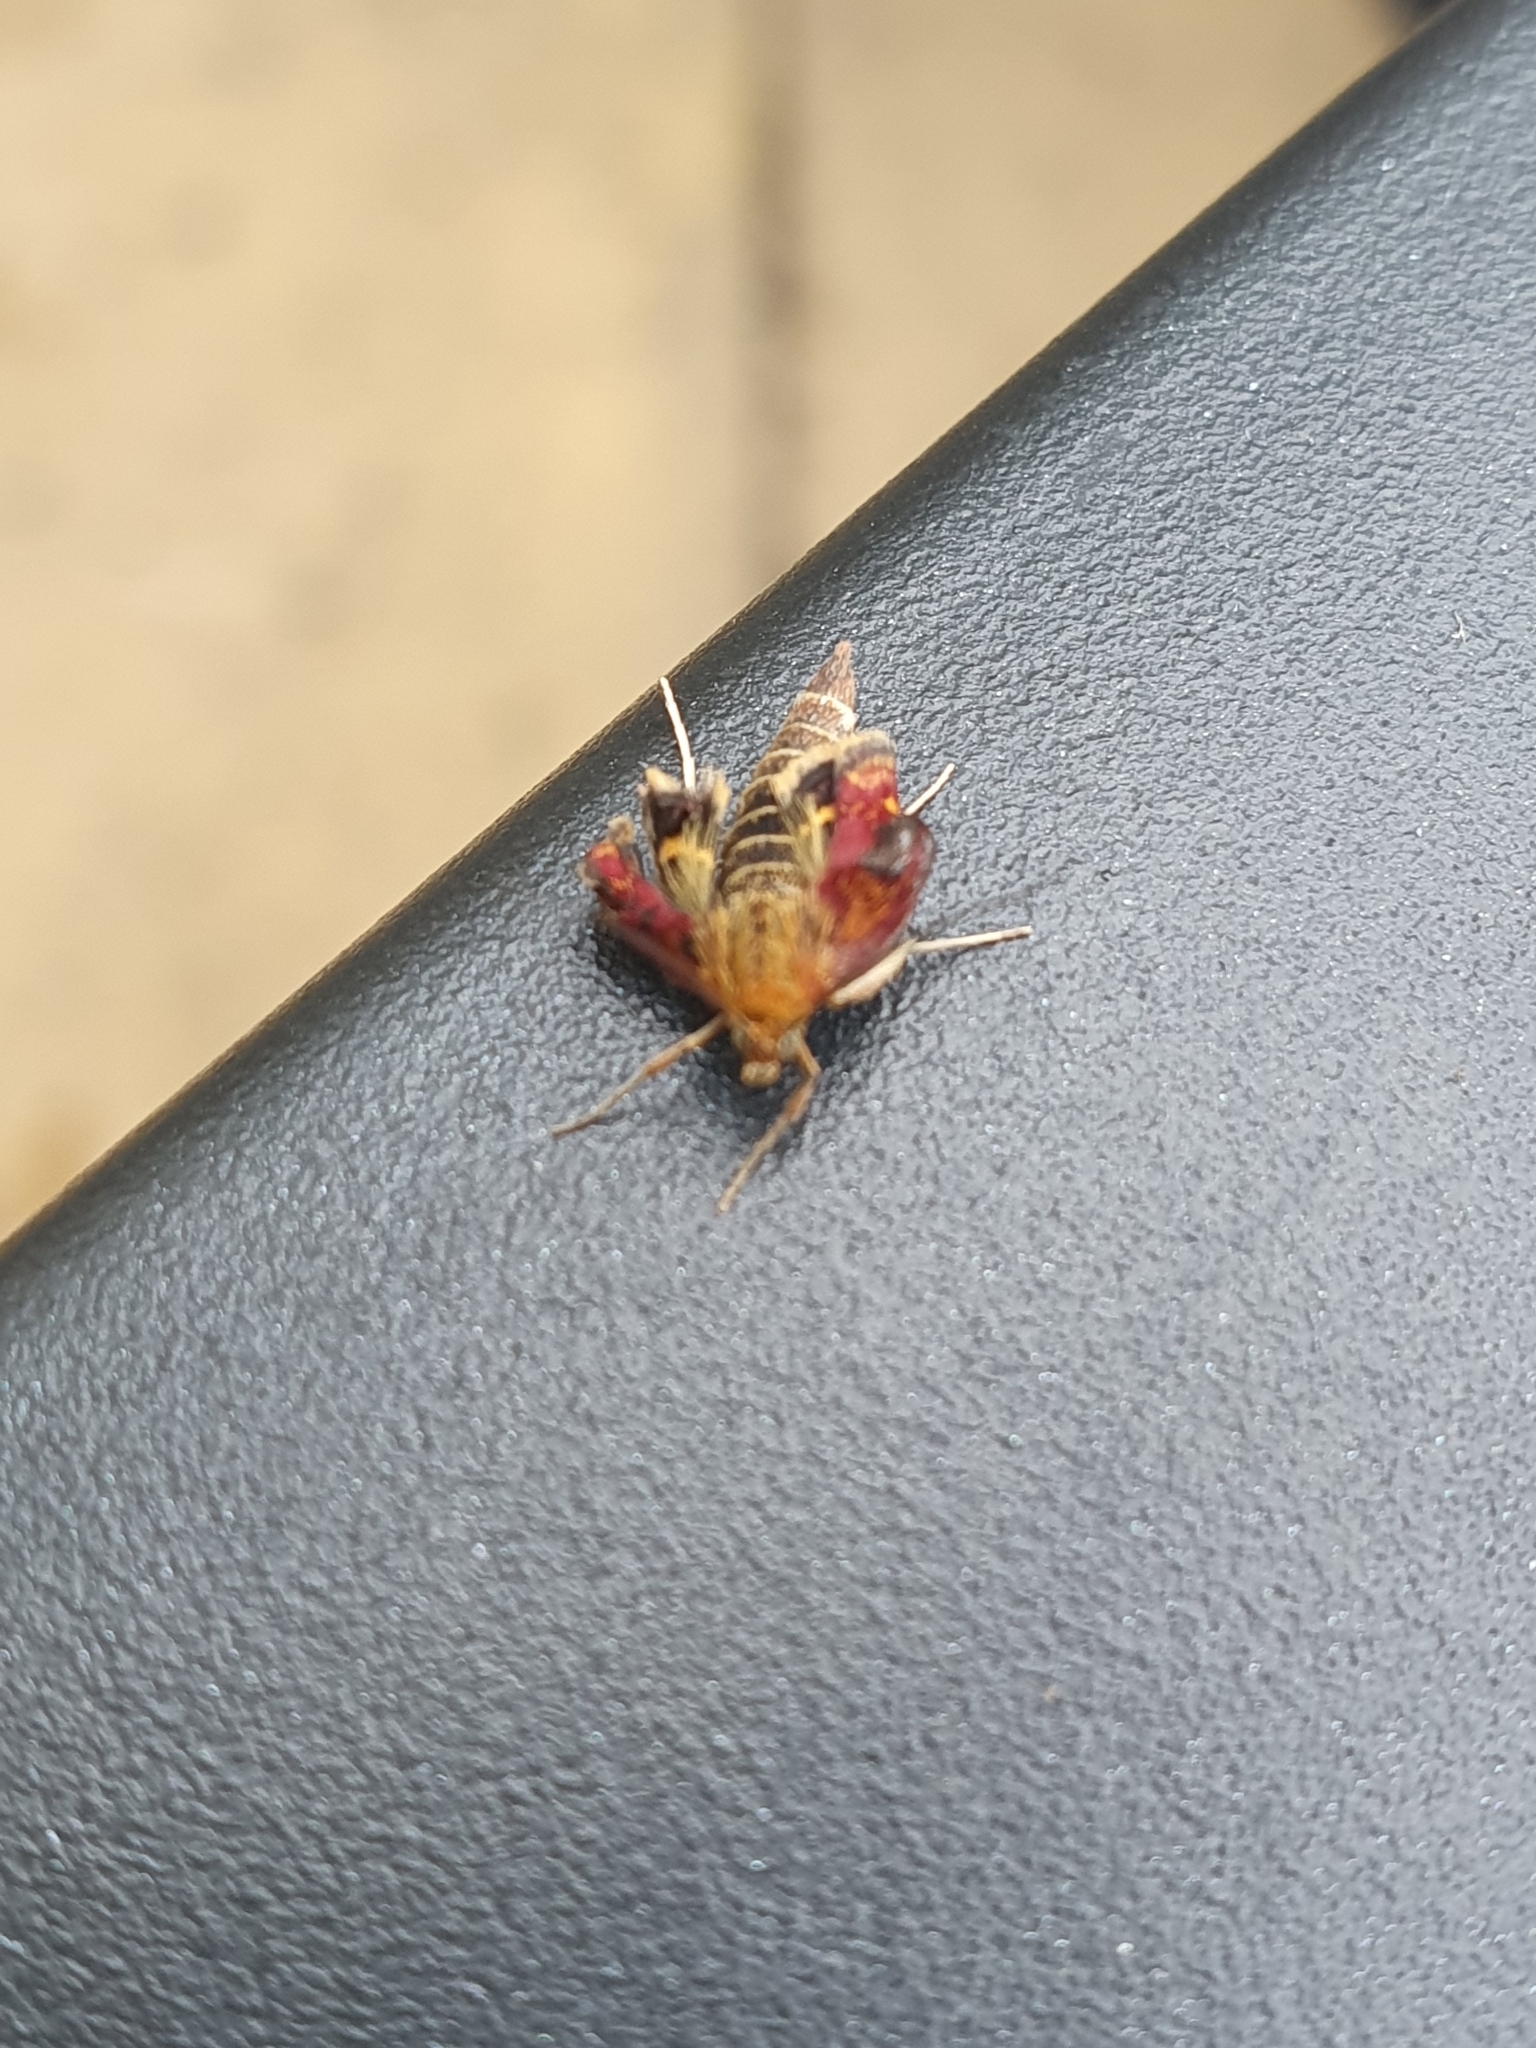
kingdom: Animalia
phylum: Arthropoda
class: Insecta
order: Lepidoptera
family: Crambidae
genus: Pyrausta
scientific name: Pyrausta aurata
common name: Small purple & gold
